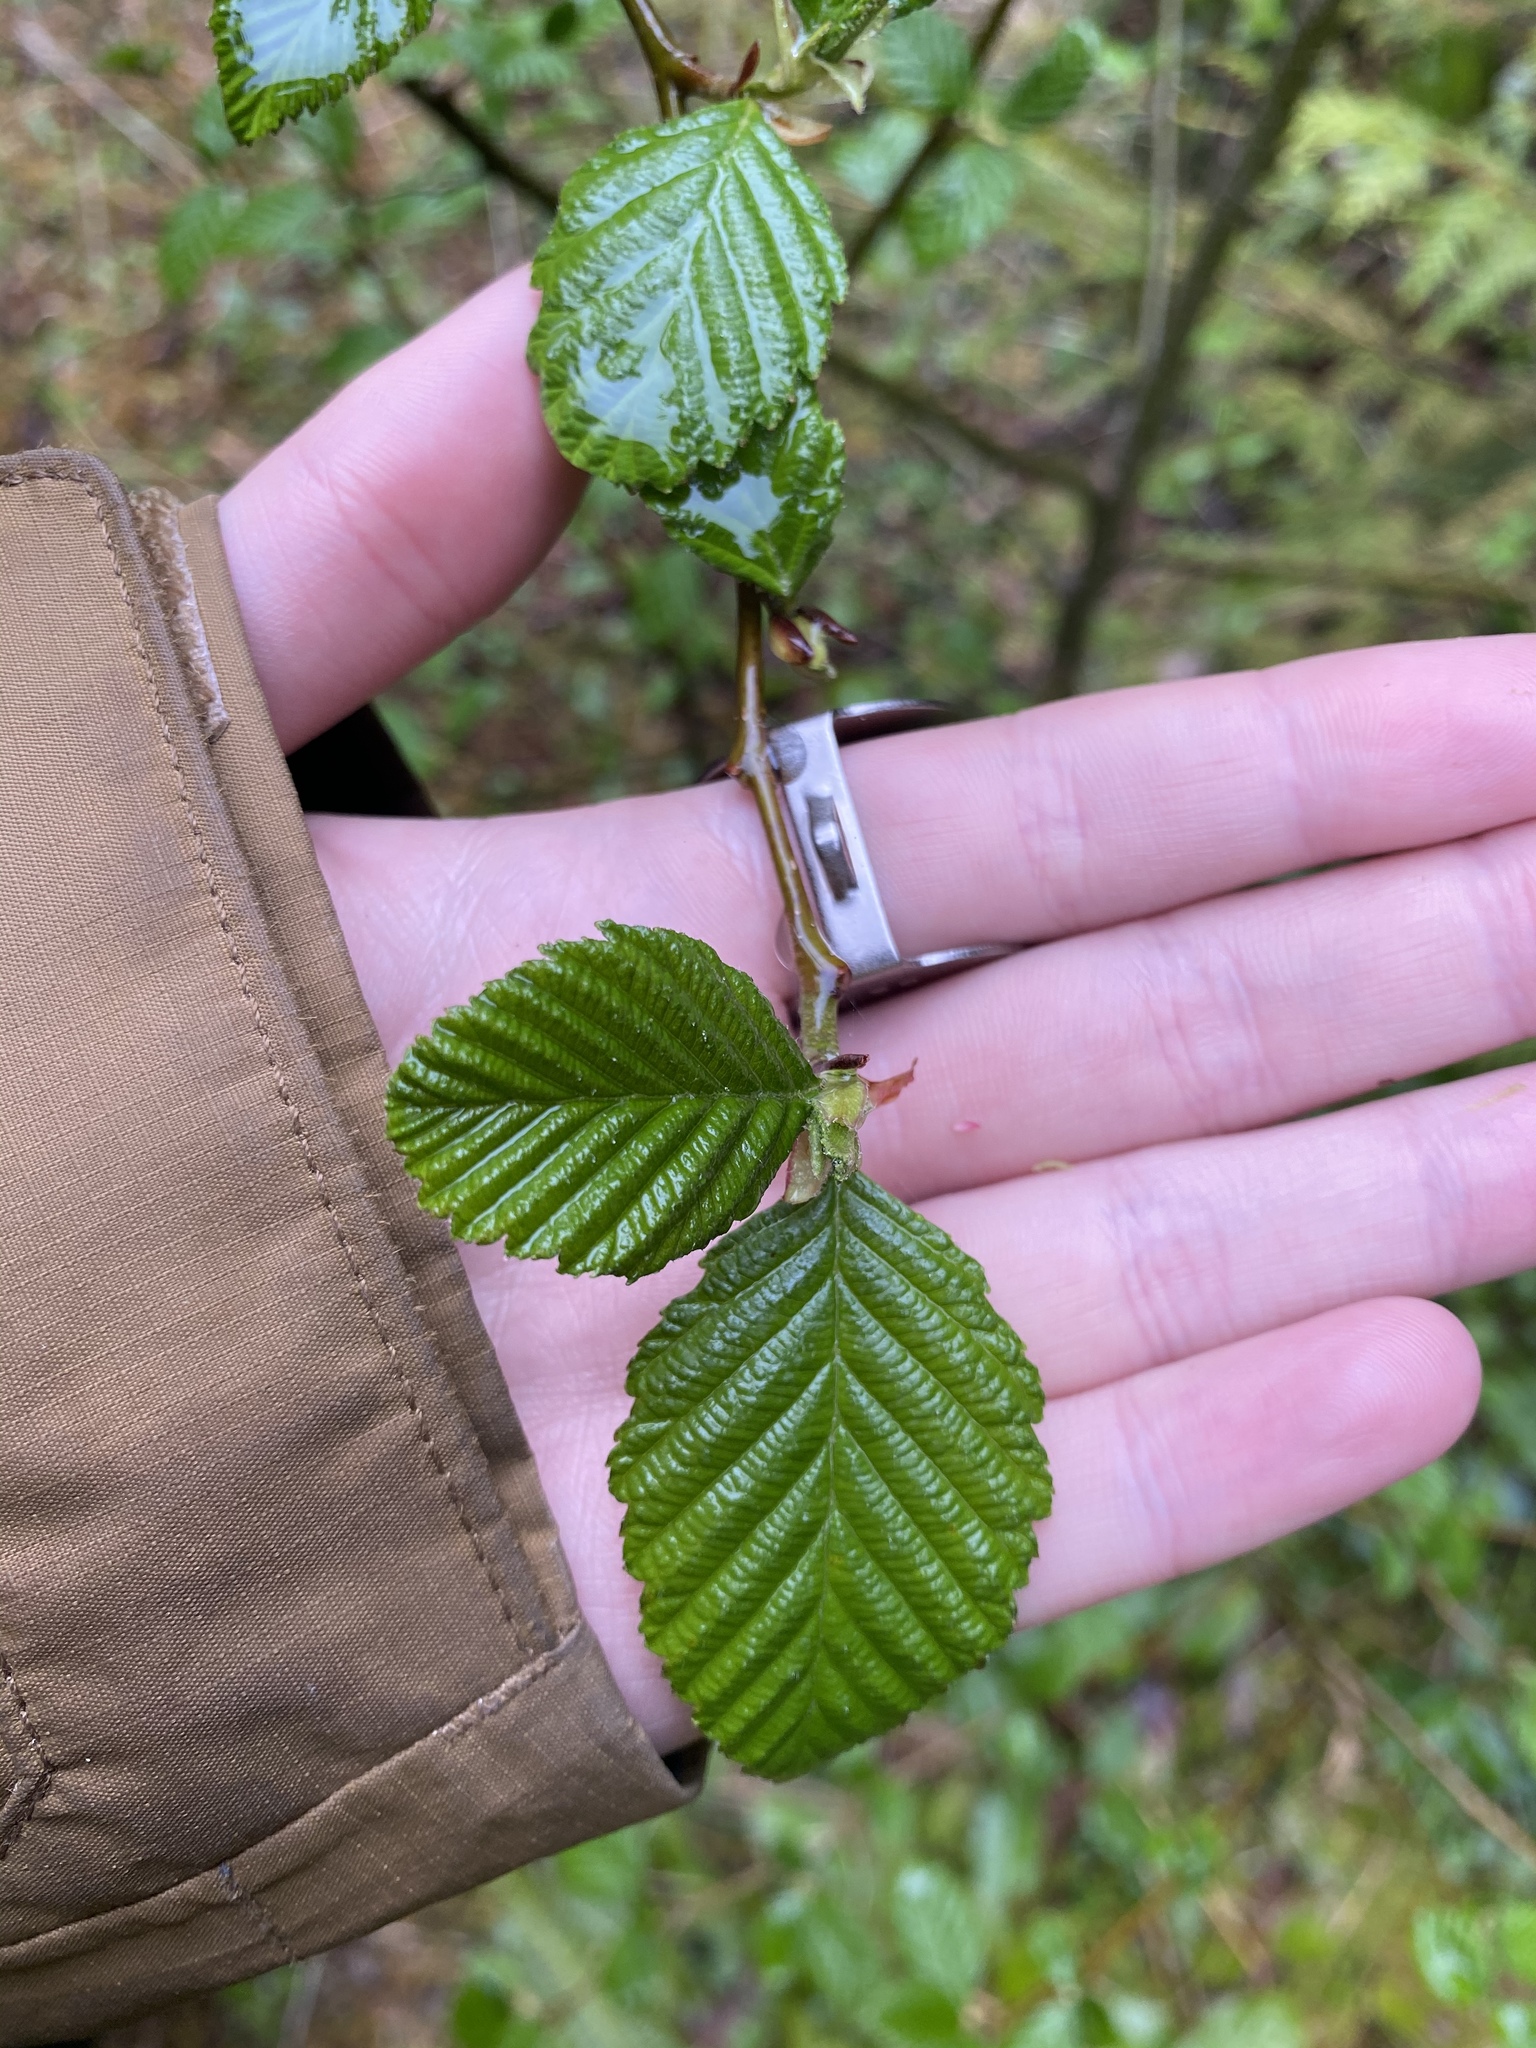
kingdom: Plantae
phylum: Tracheophyta
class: Magnoliopsida
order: Fagales
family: Betulaceae
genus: Alnus
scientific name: Alnus rubra
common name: Red alder
